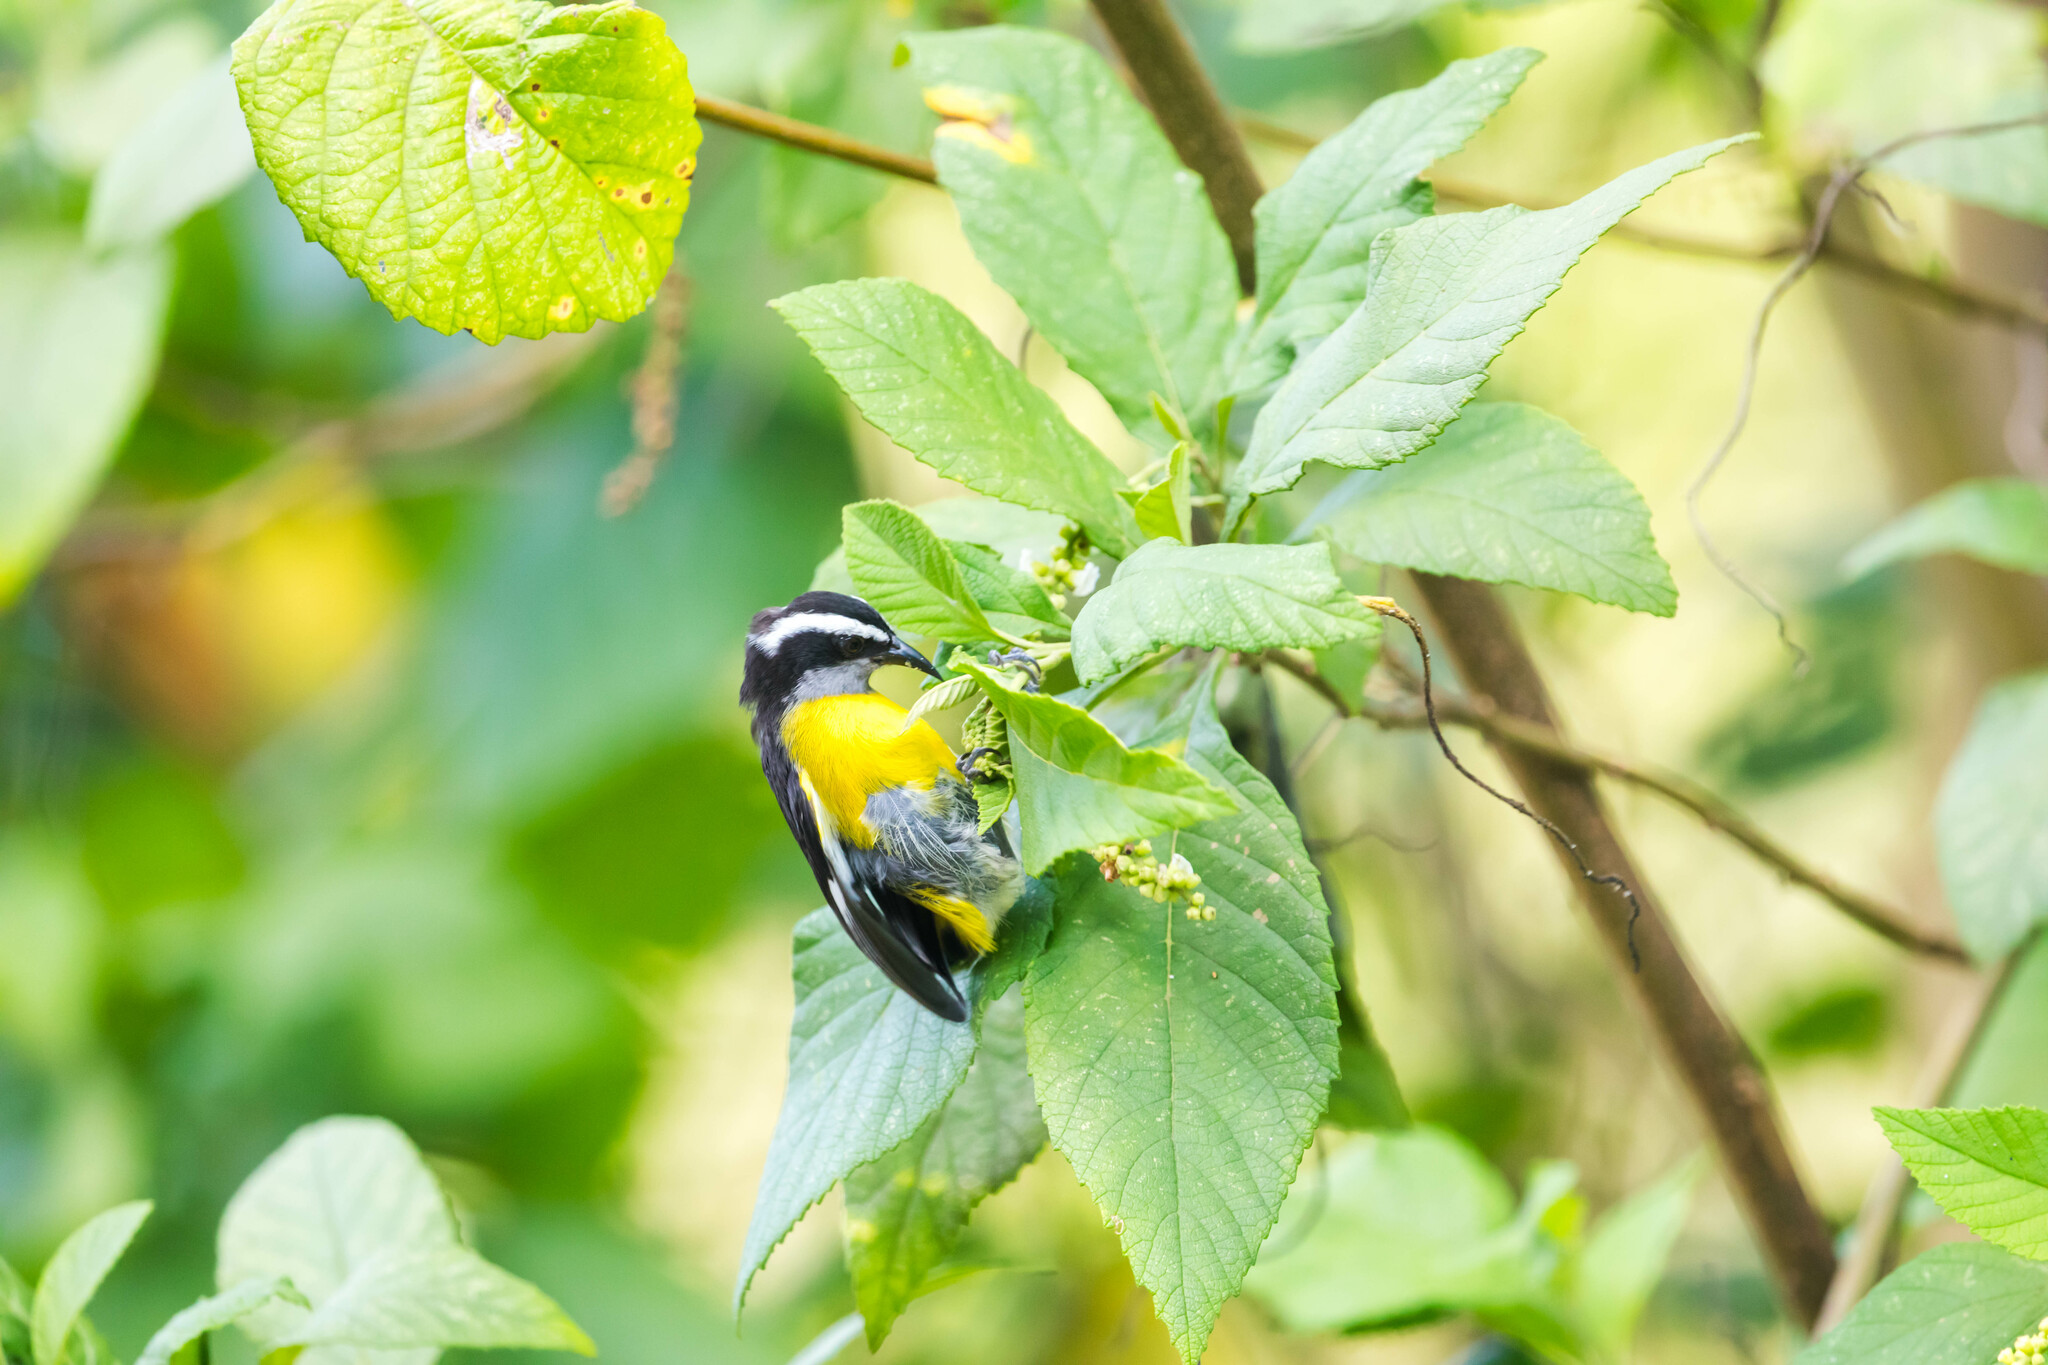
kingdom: Animalia
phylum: Chordata
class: Aves
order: Passeriformes
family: Thraupidae
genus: Coereba
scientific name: Coereba flaveola
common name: Bananaquit
